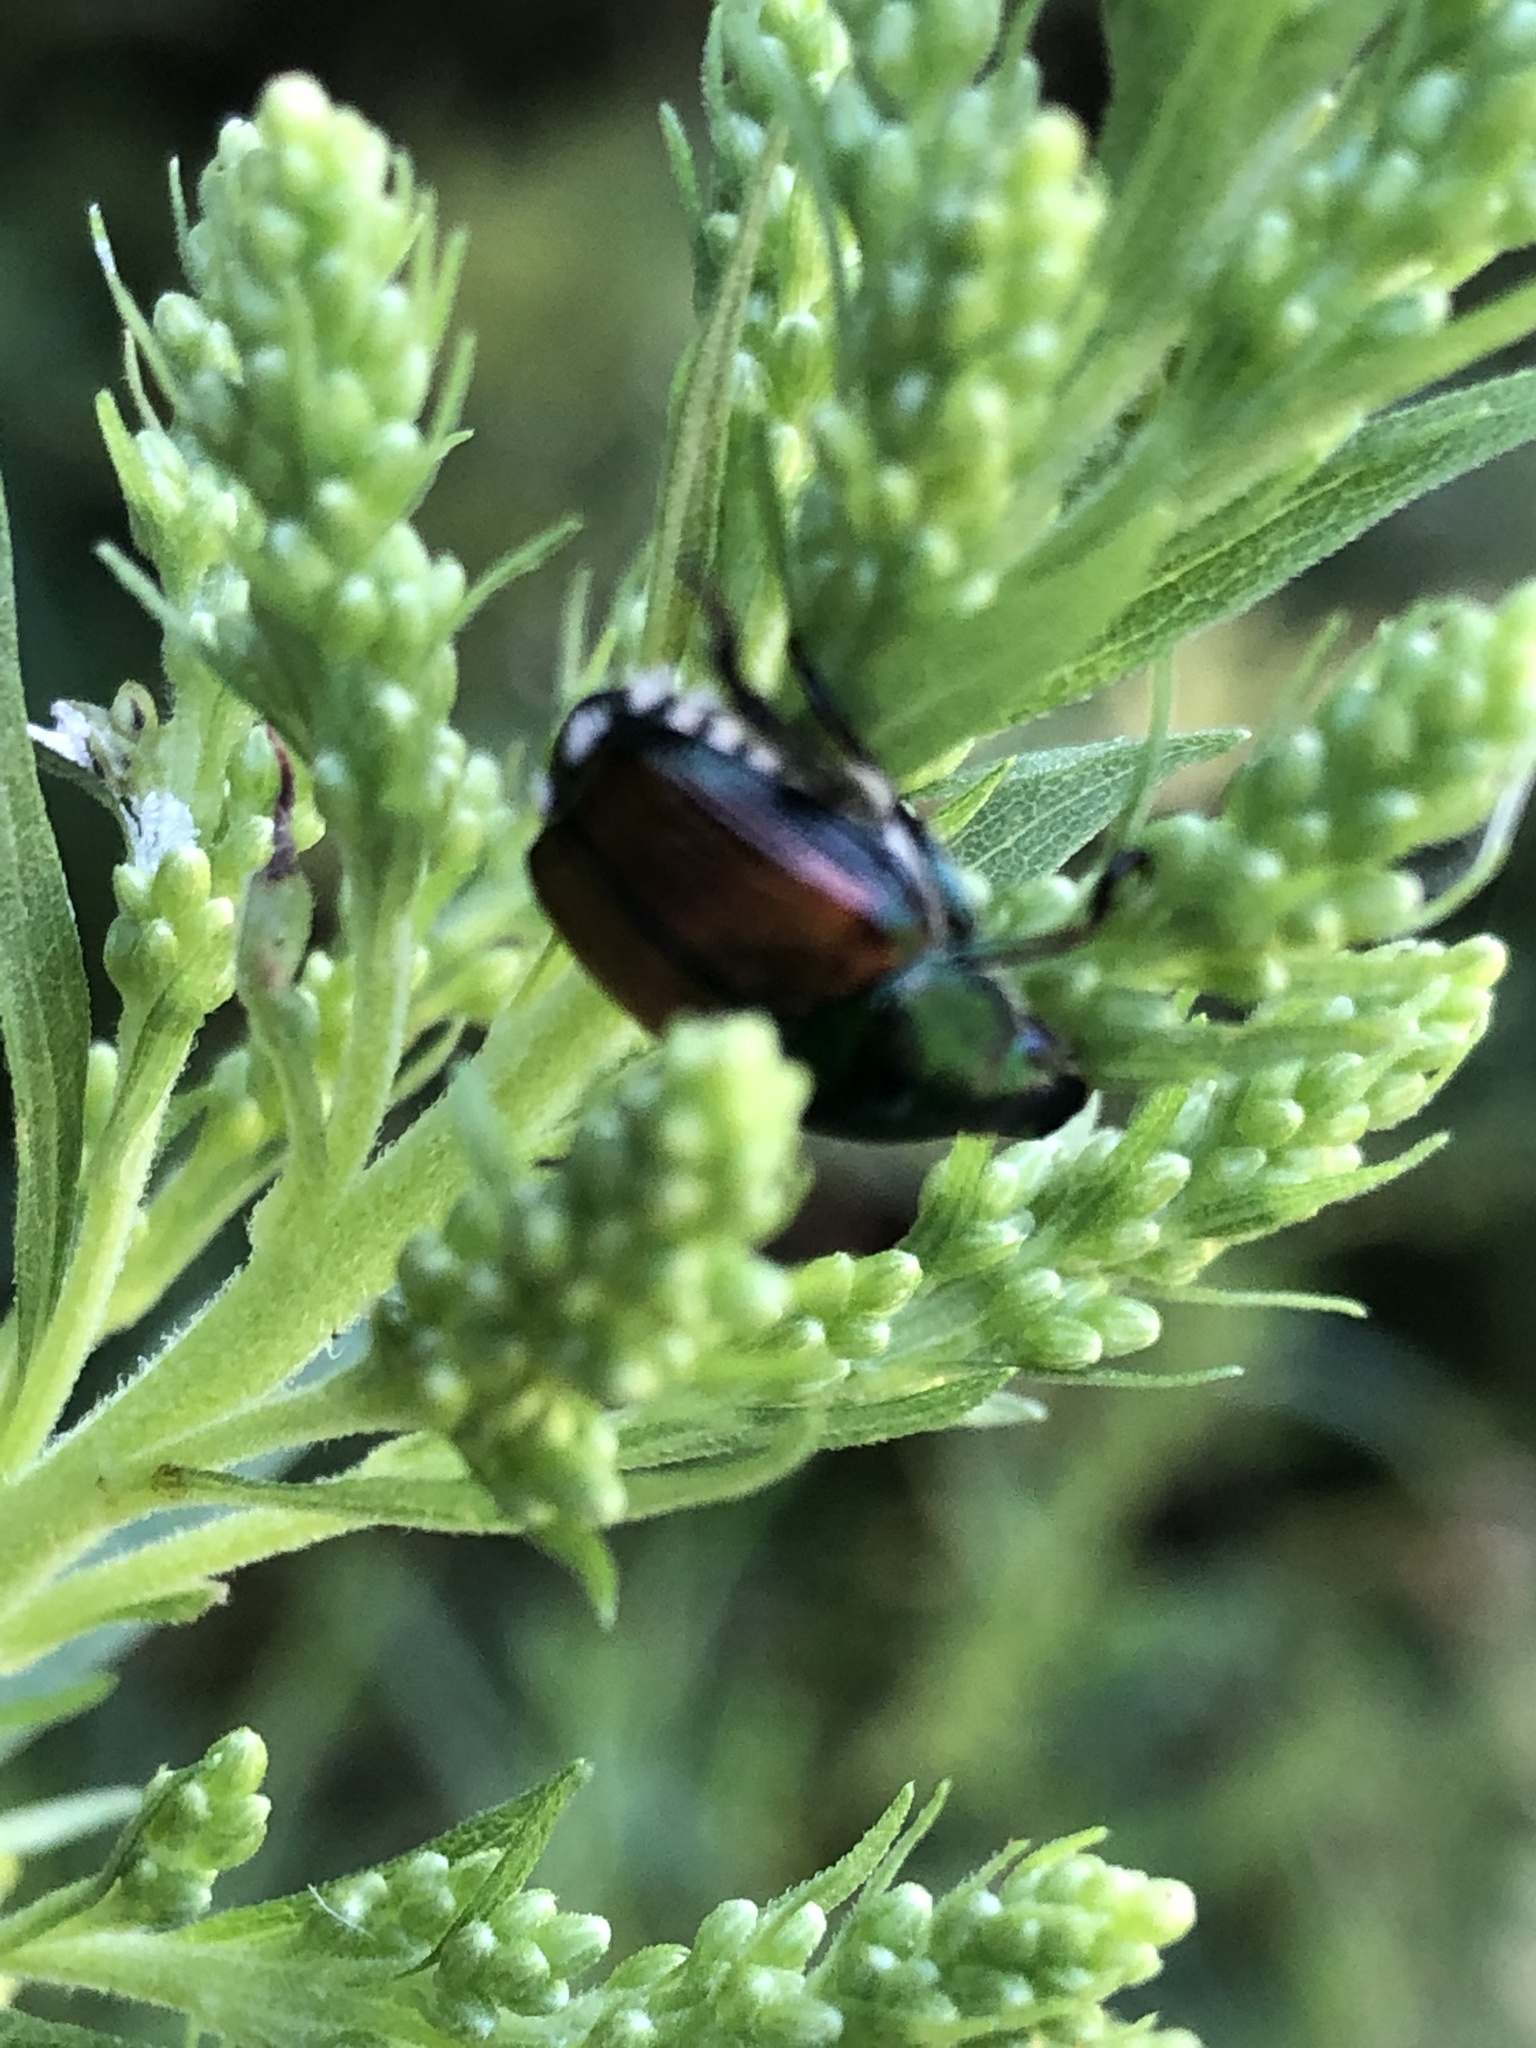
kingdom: Animalia
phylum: Arthropoda
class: Insecta
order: Coleoptera
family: Scarabaeidae
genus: Popillia
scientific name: Popillia japonica
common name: Japanese beetle
